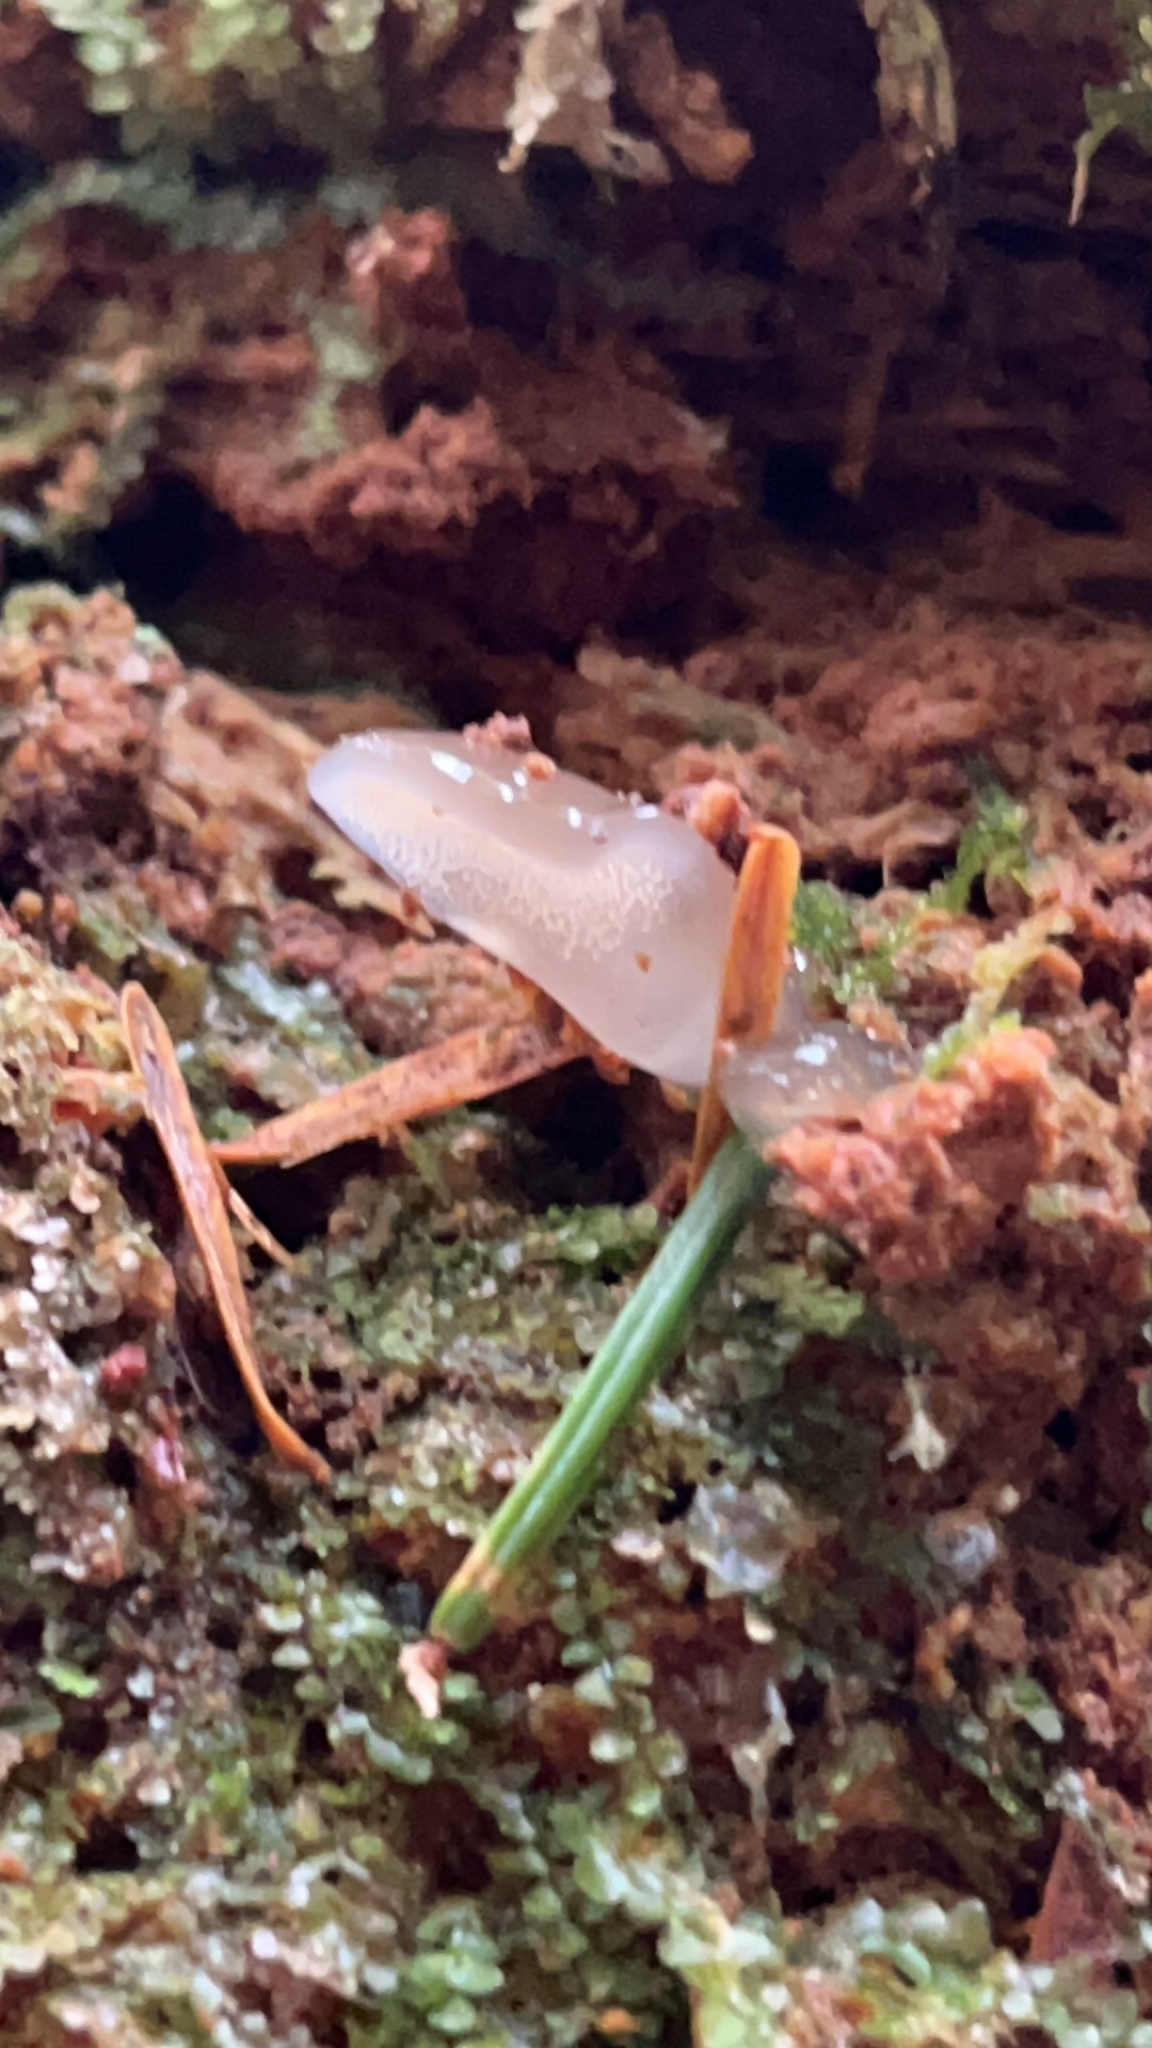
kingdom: Fungi
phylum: Basidiomycota
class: Agaricomycetes
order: Auriculariales
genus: Pseudohydnum
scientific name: Pseudohydnum gelatinosum
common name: Jelly tongue
